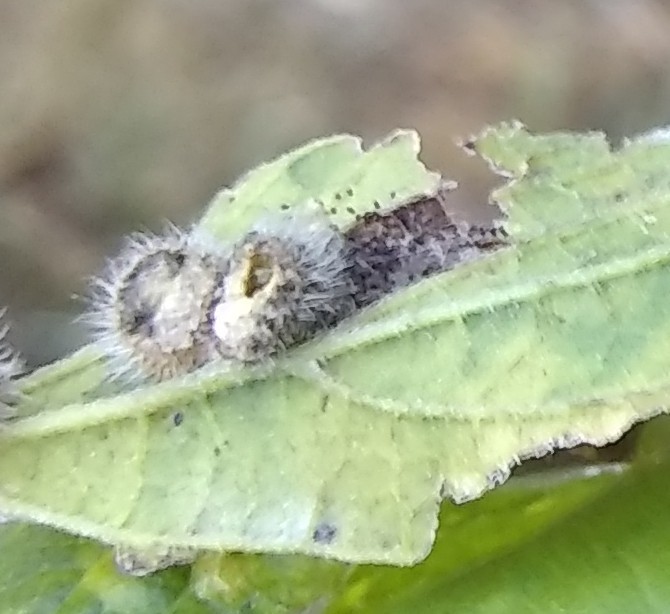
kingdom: Animalia
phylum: Arthropoda
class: Insecta
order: Diptera
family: Cecidomyiidae
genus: Celticecis
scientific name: Celticecis pubescens
